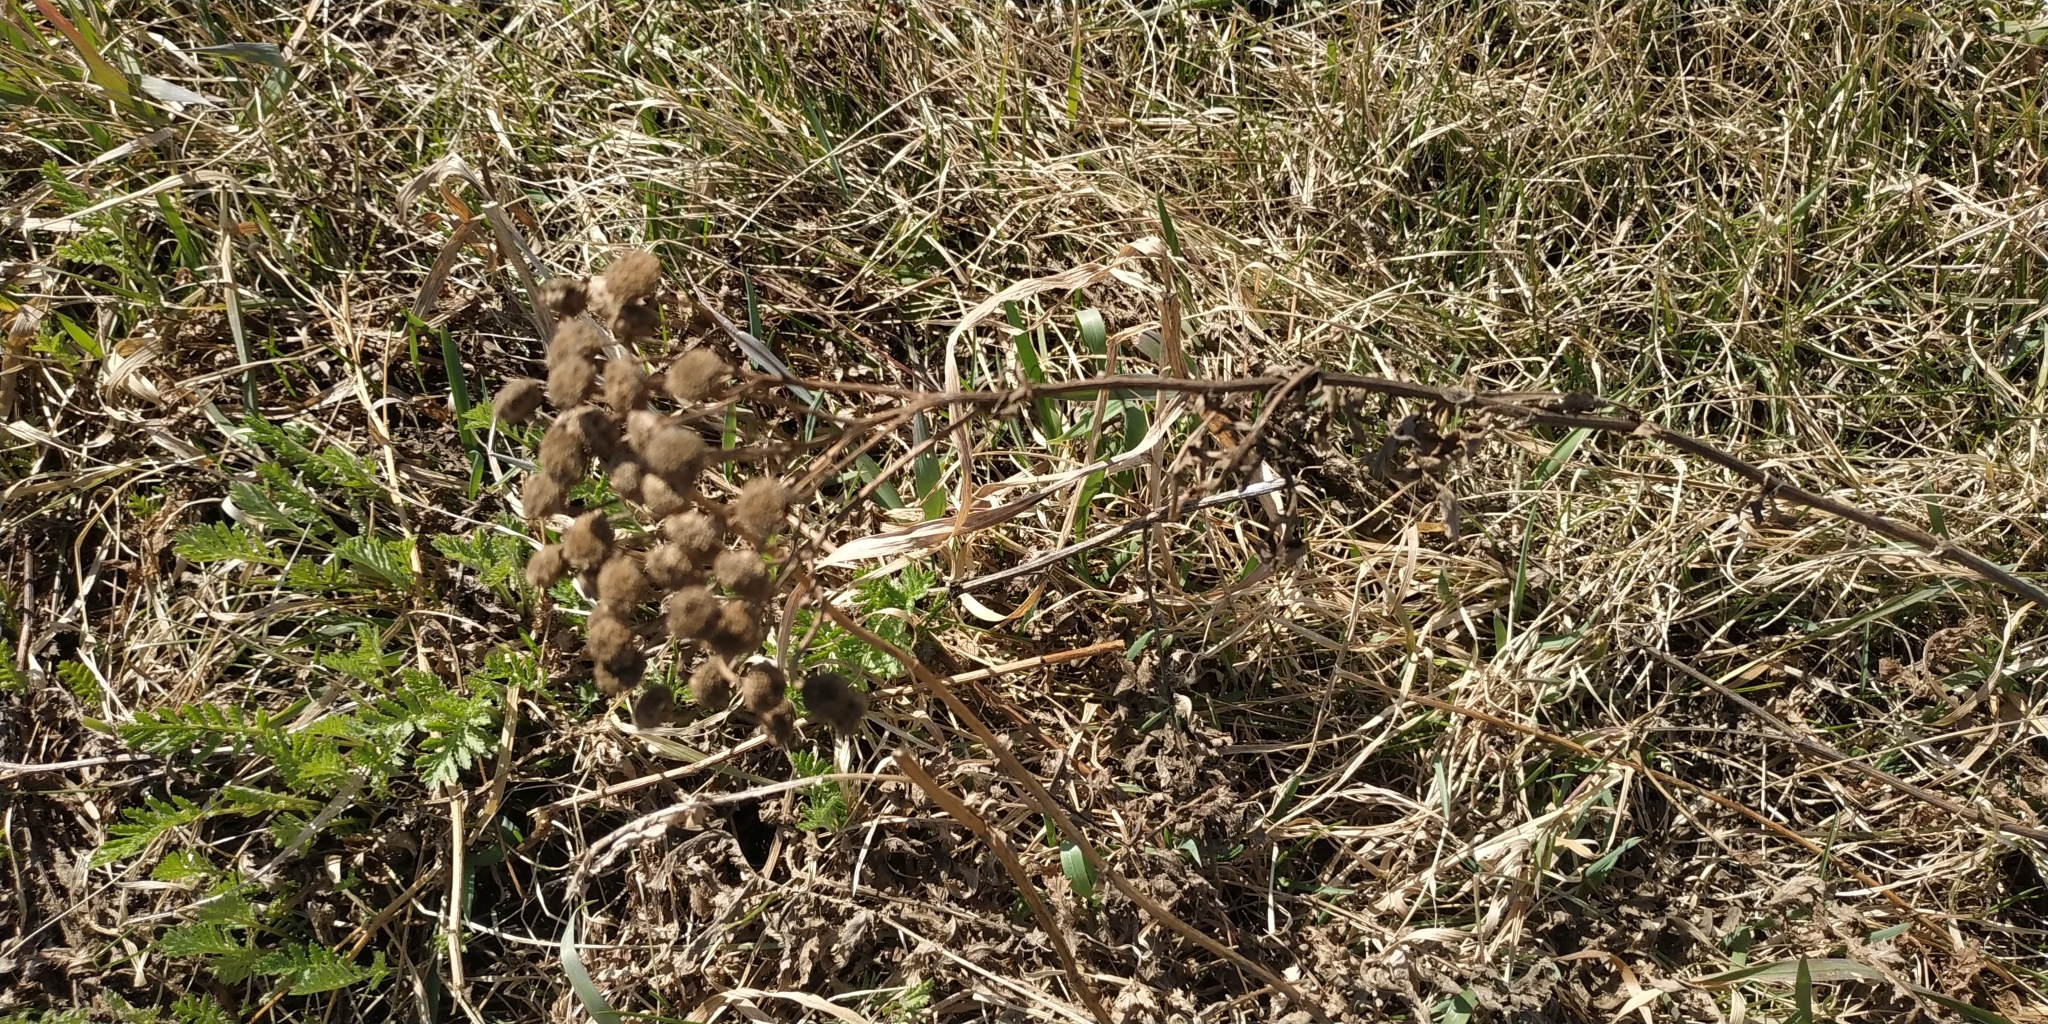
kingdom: Plantae
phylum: Tracheophyta
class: Magnoliopsida
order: Asterales
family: Asteraceae
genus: Tanacetum
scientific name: Tanacetum vulgare
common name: Common tansy
